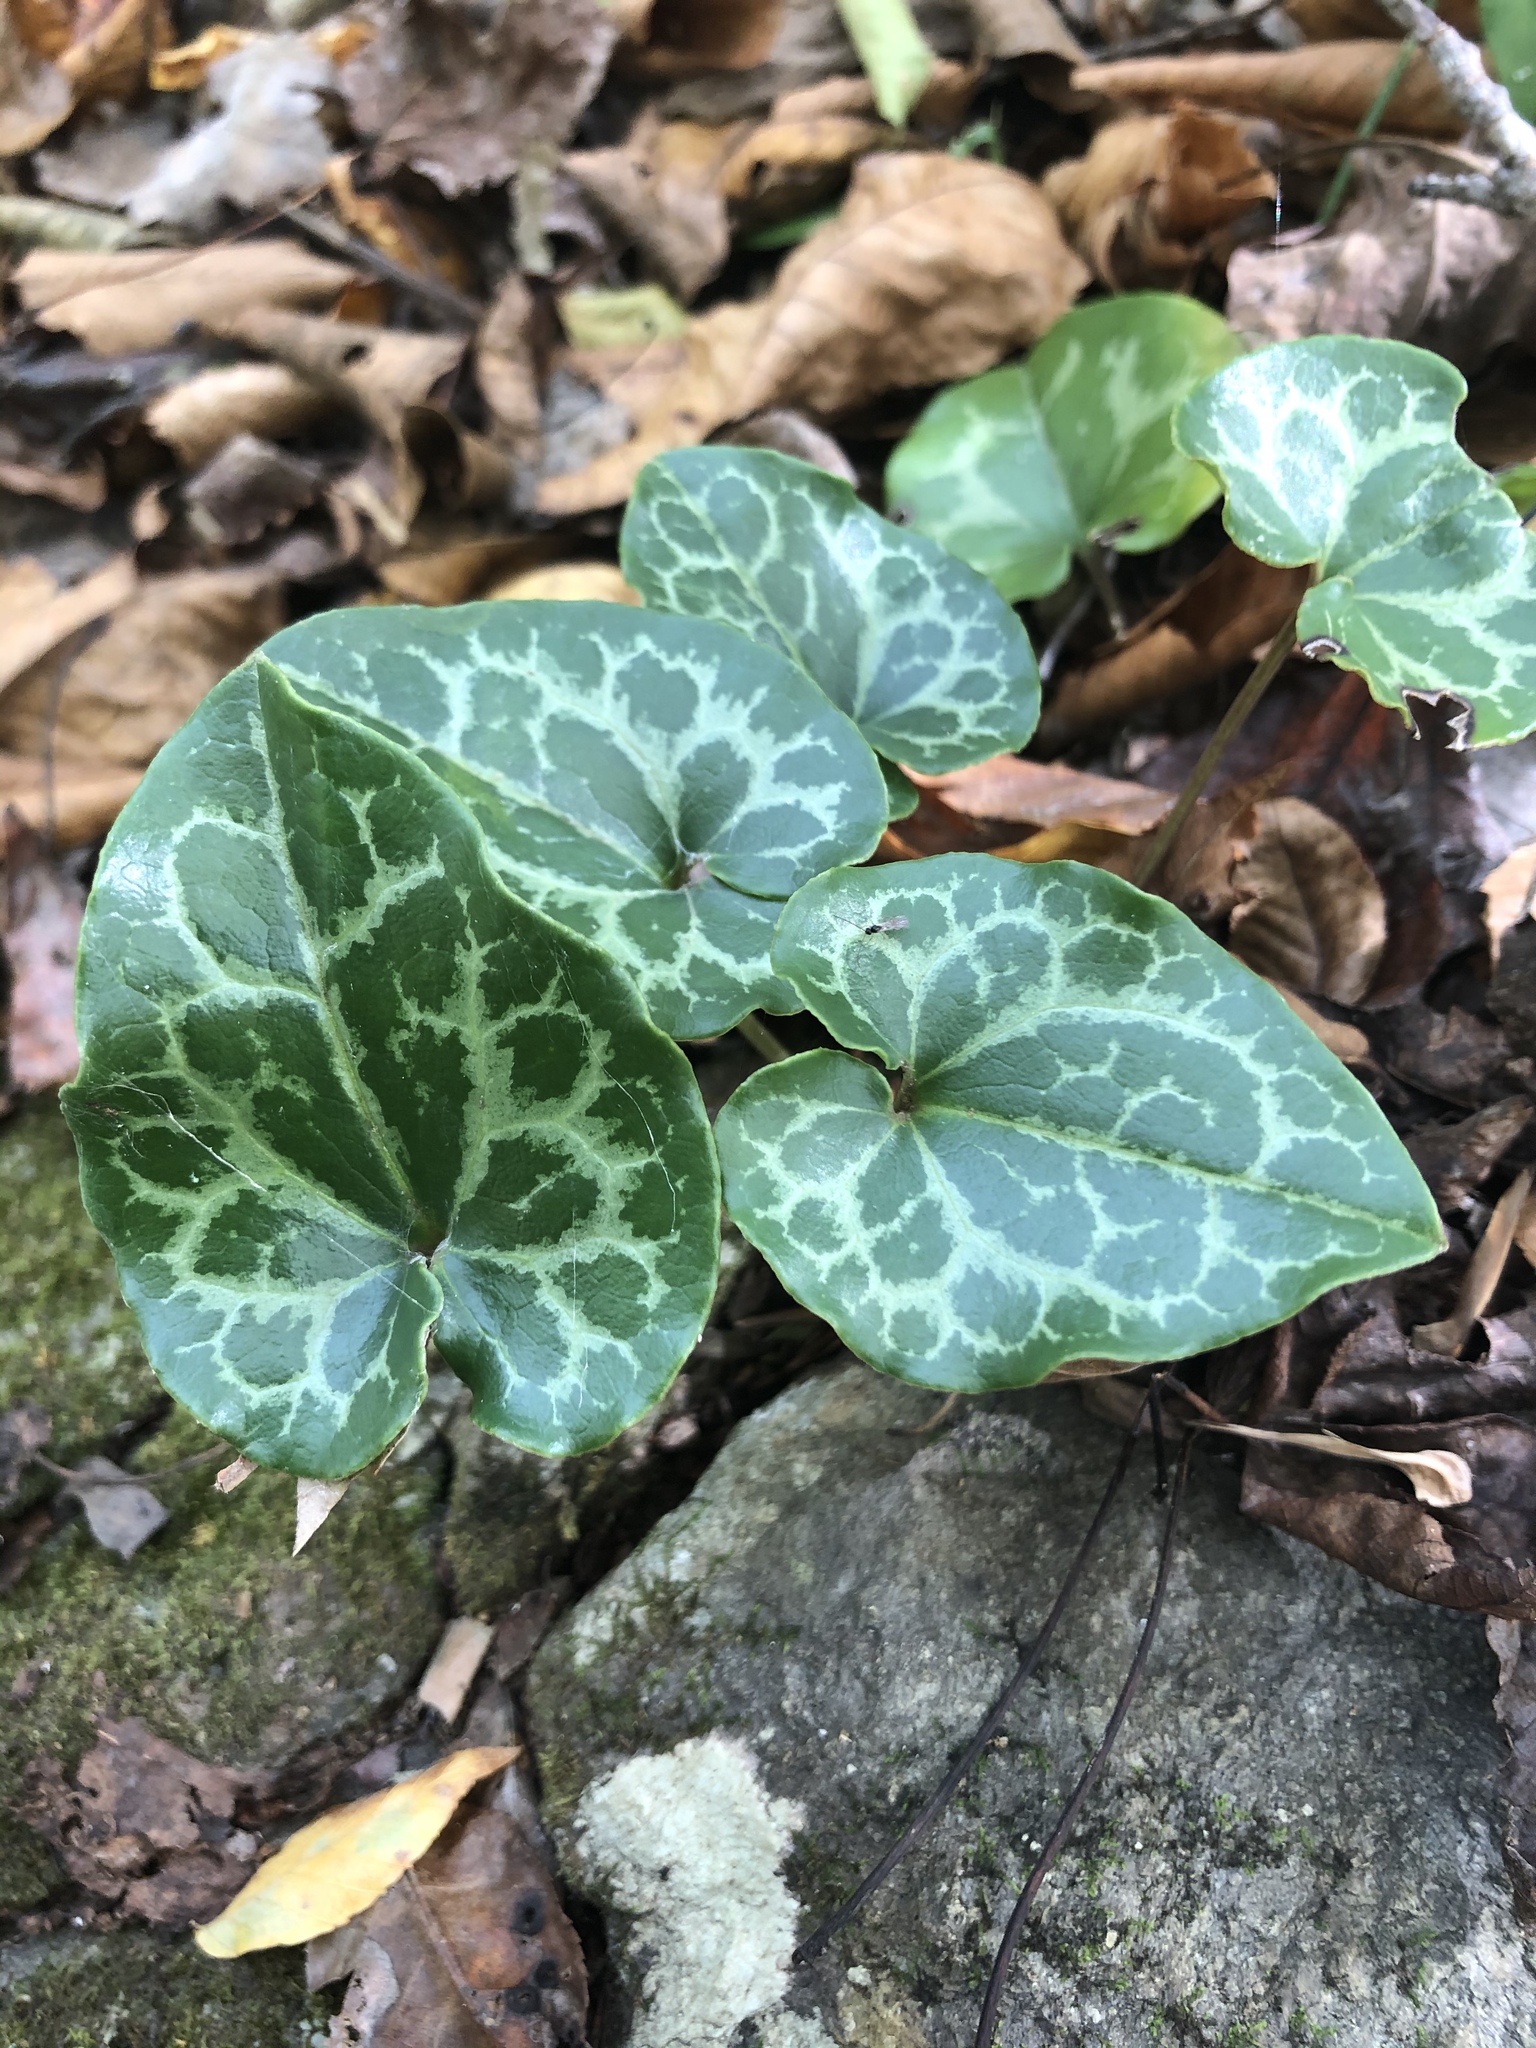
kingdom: Plantae
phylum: Tracheophyta
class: Magnoliopsida
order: Piperales
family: Aristolochiaceae
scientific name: Aristolochiaceae
